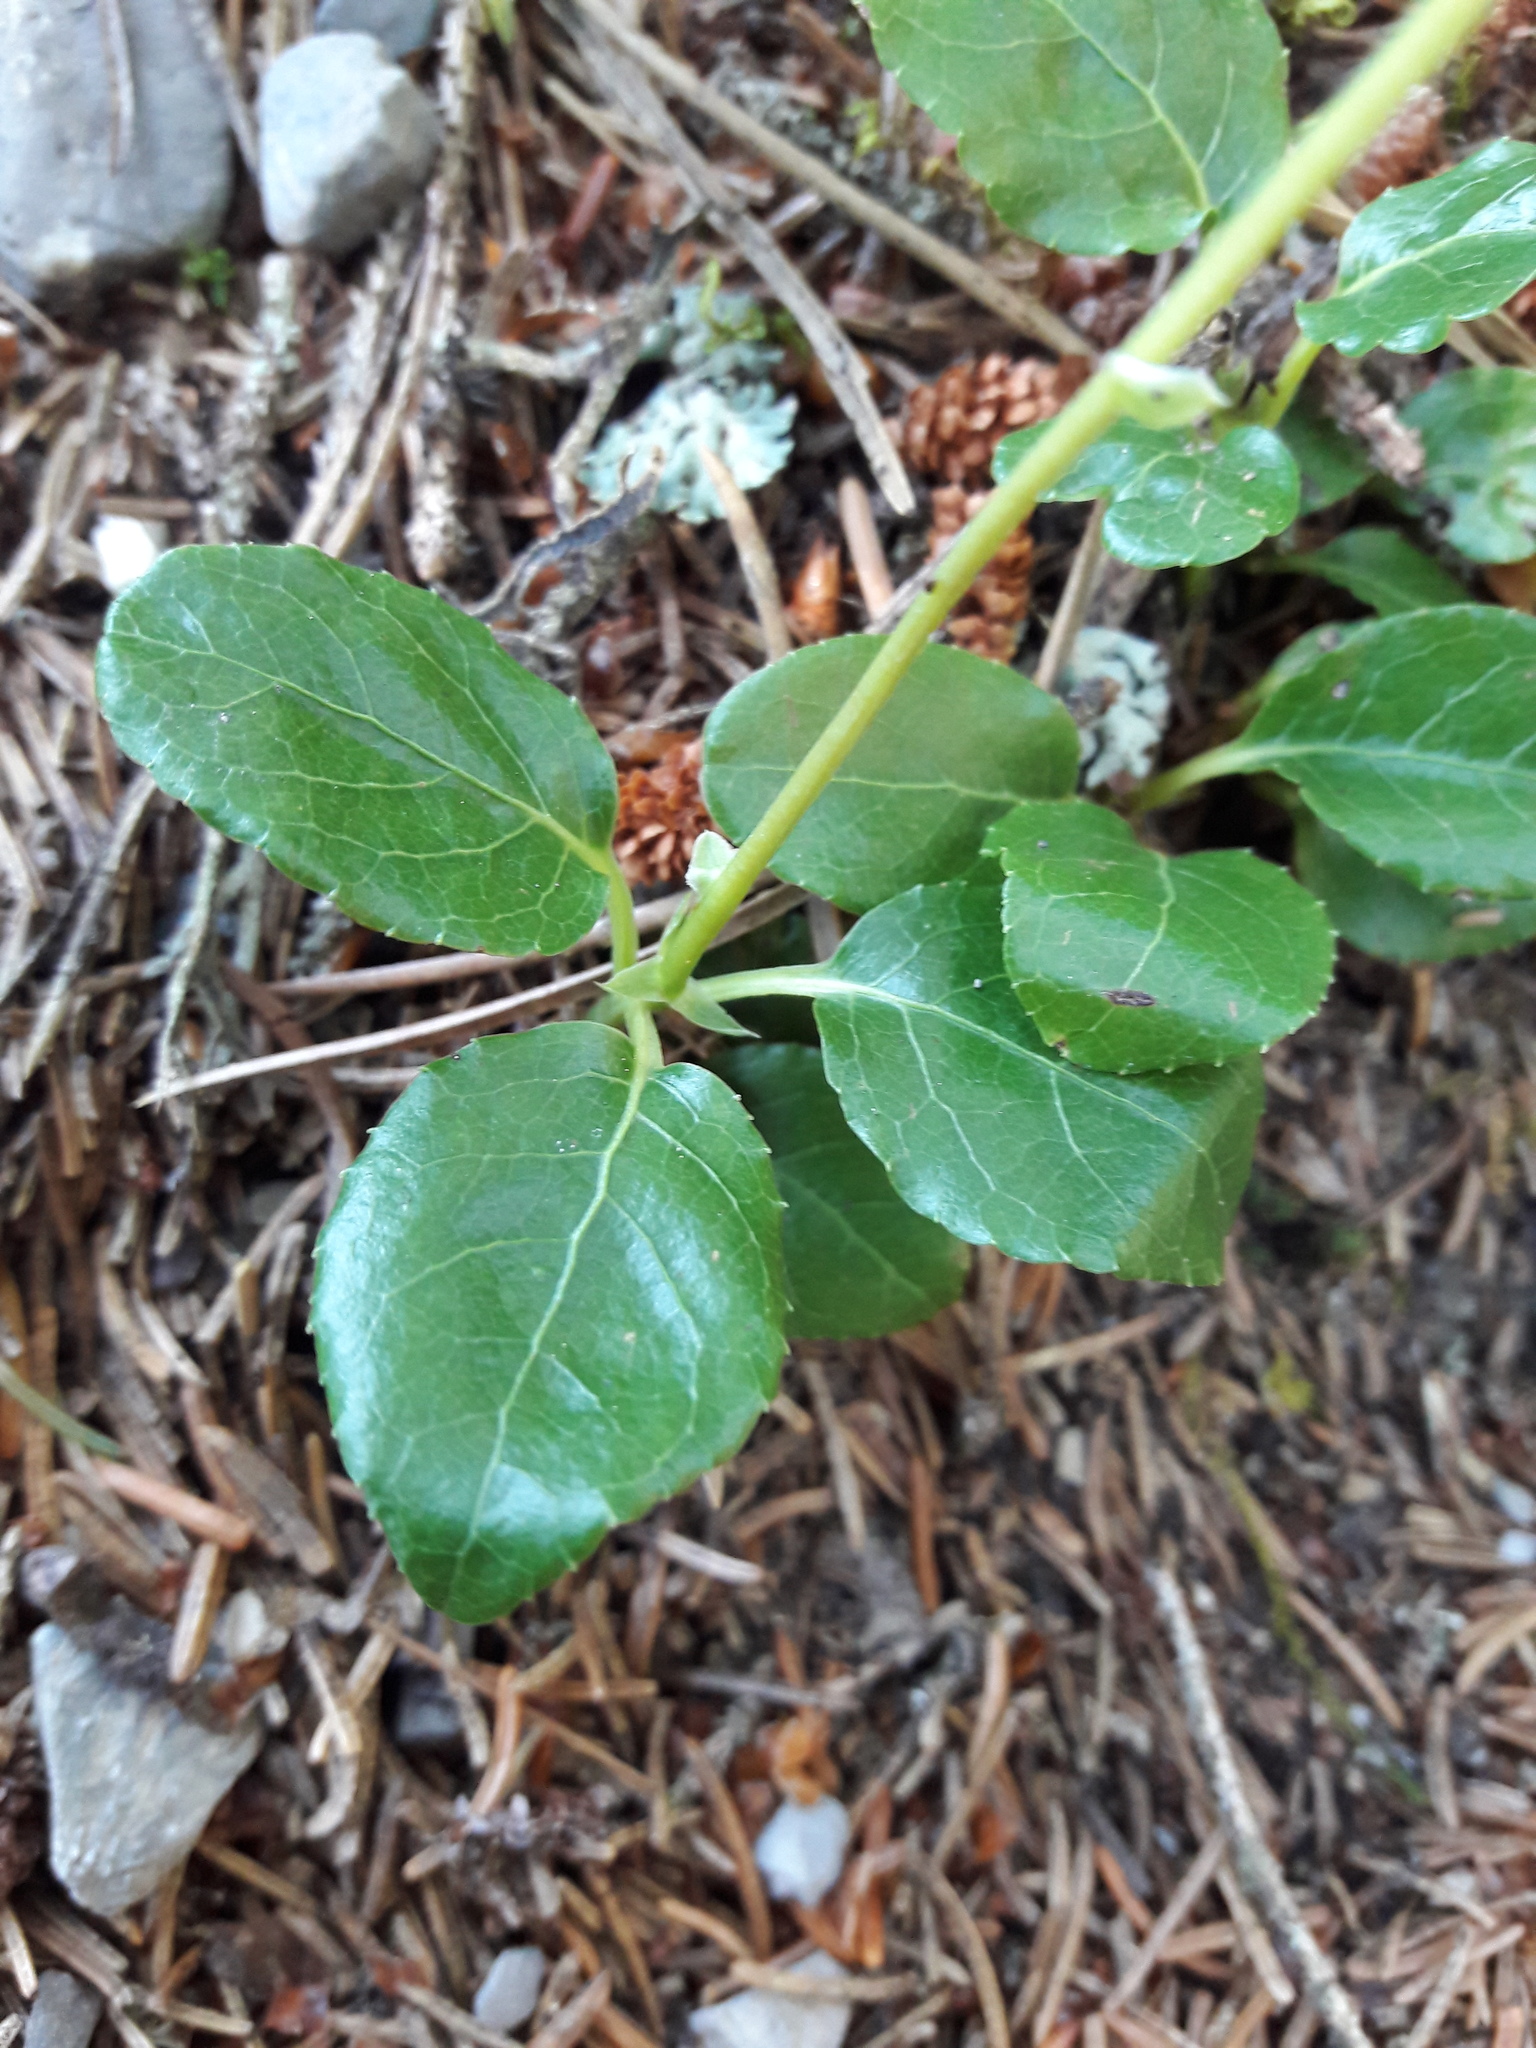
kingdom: Plantae
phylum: Tracheophyta
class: Magnoliopsida
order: Ericales
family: Ericaceae
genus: Orthilia
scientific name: Orthilia secunda
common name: One-sided orthilia
